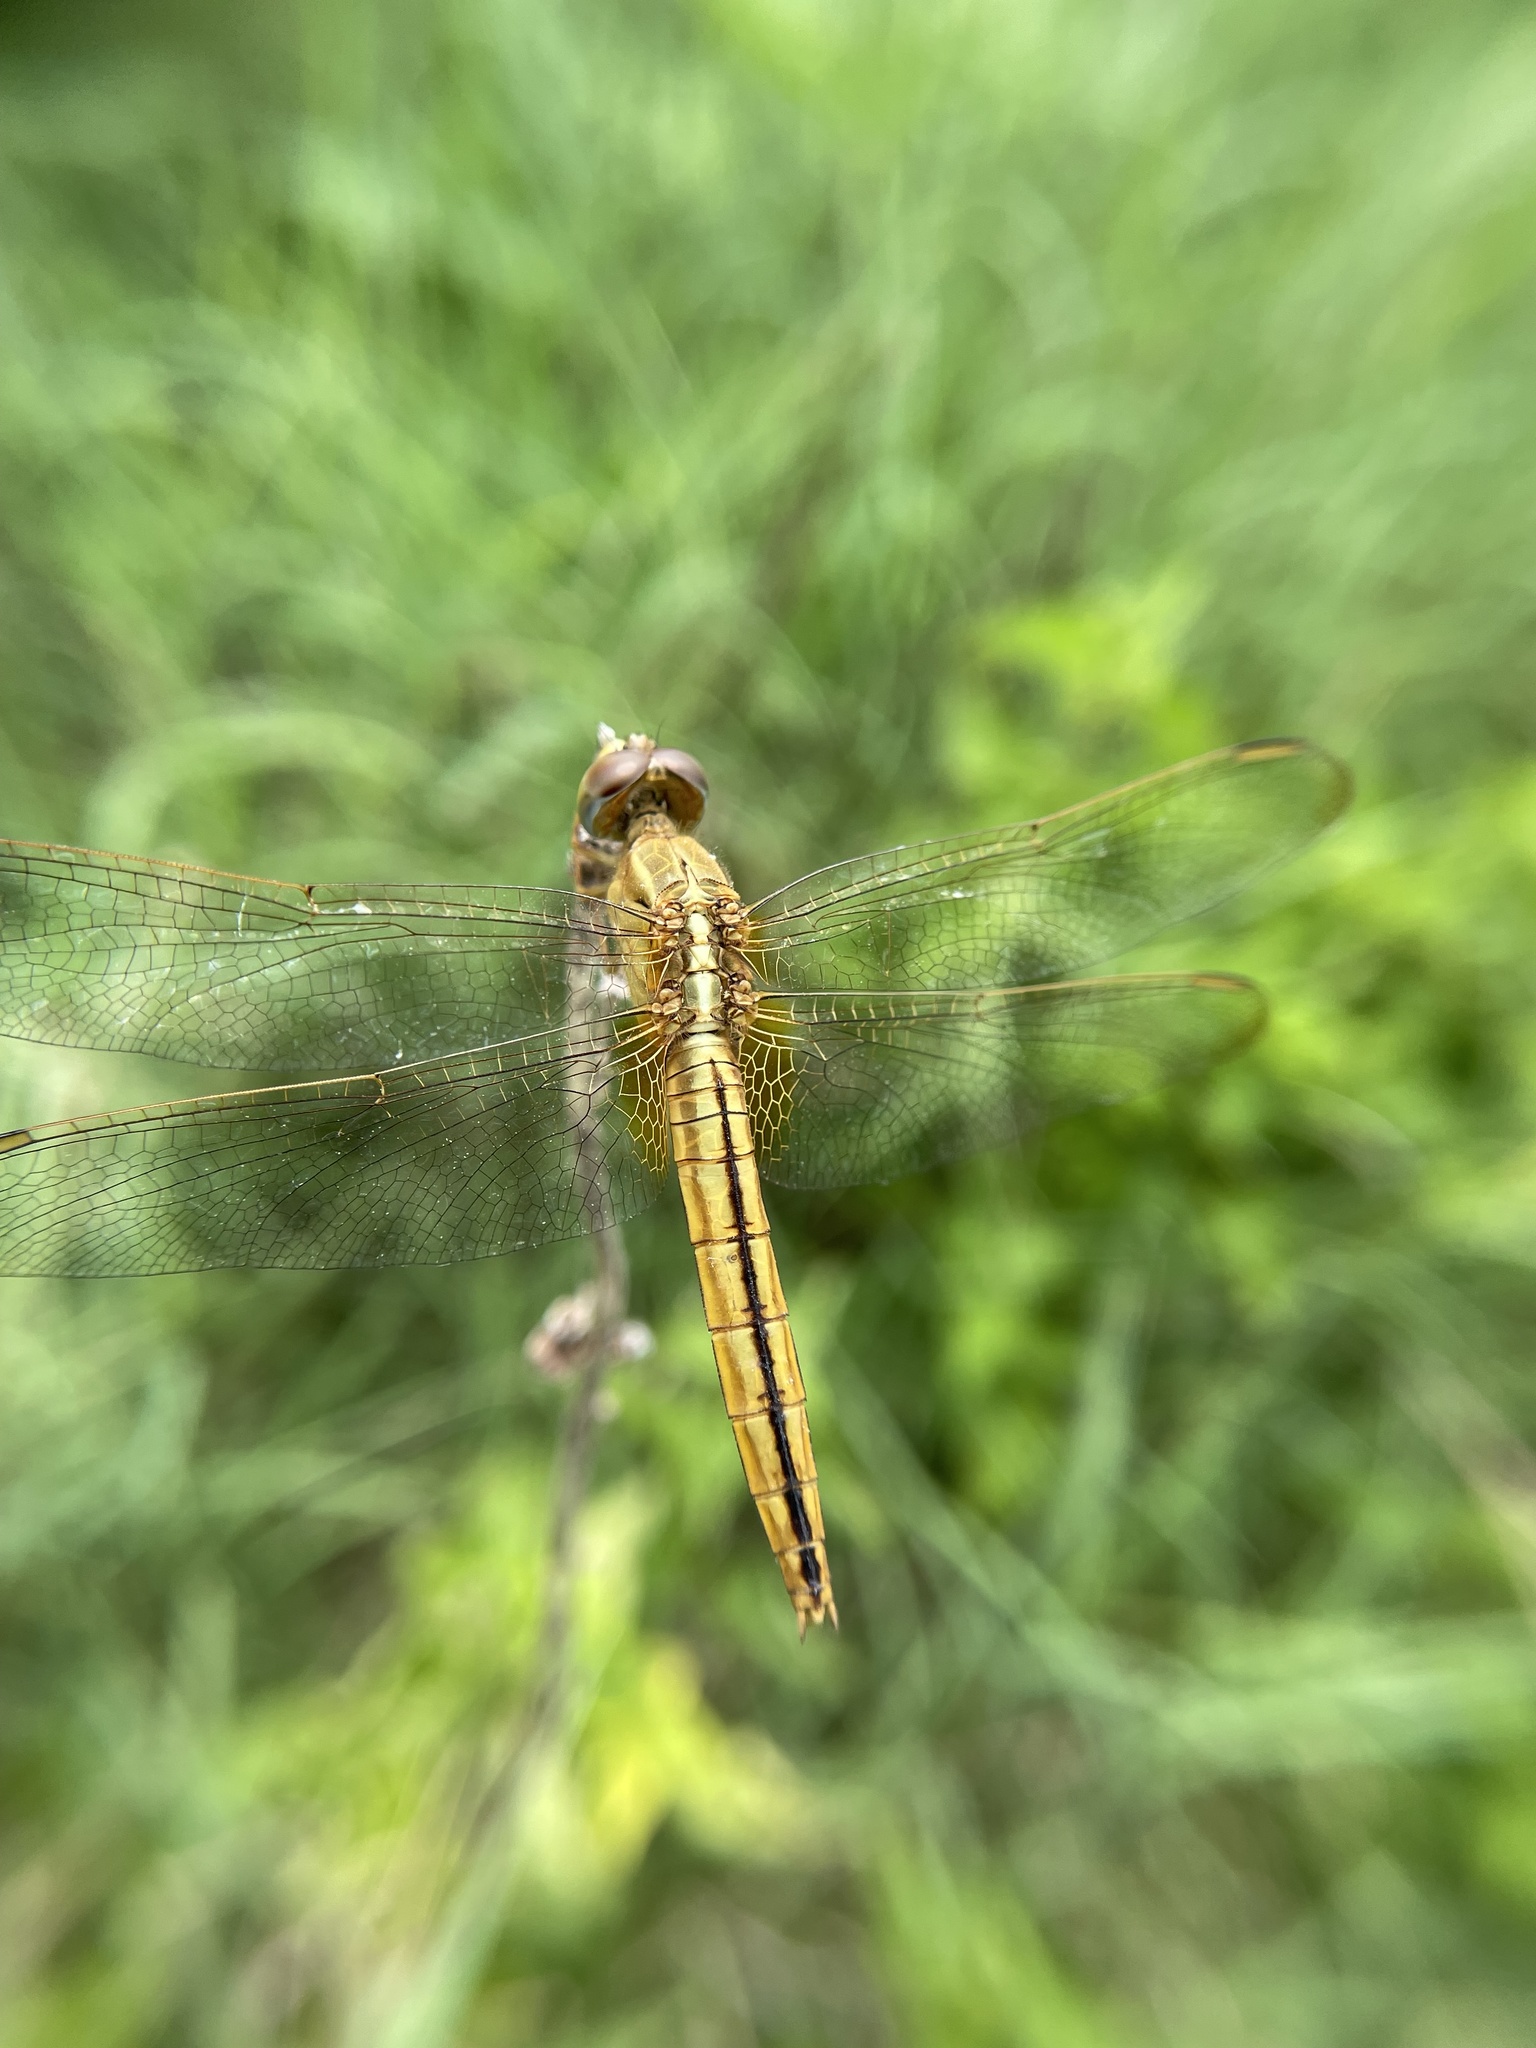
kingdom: Animalia
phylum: Arthropoda
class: Insecta
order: Odonata
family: Libellulidae
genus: Crocothemis
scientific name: Crocothemis servilia
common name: Scarlet skimmer
